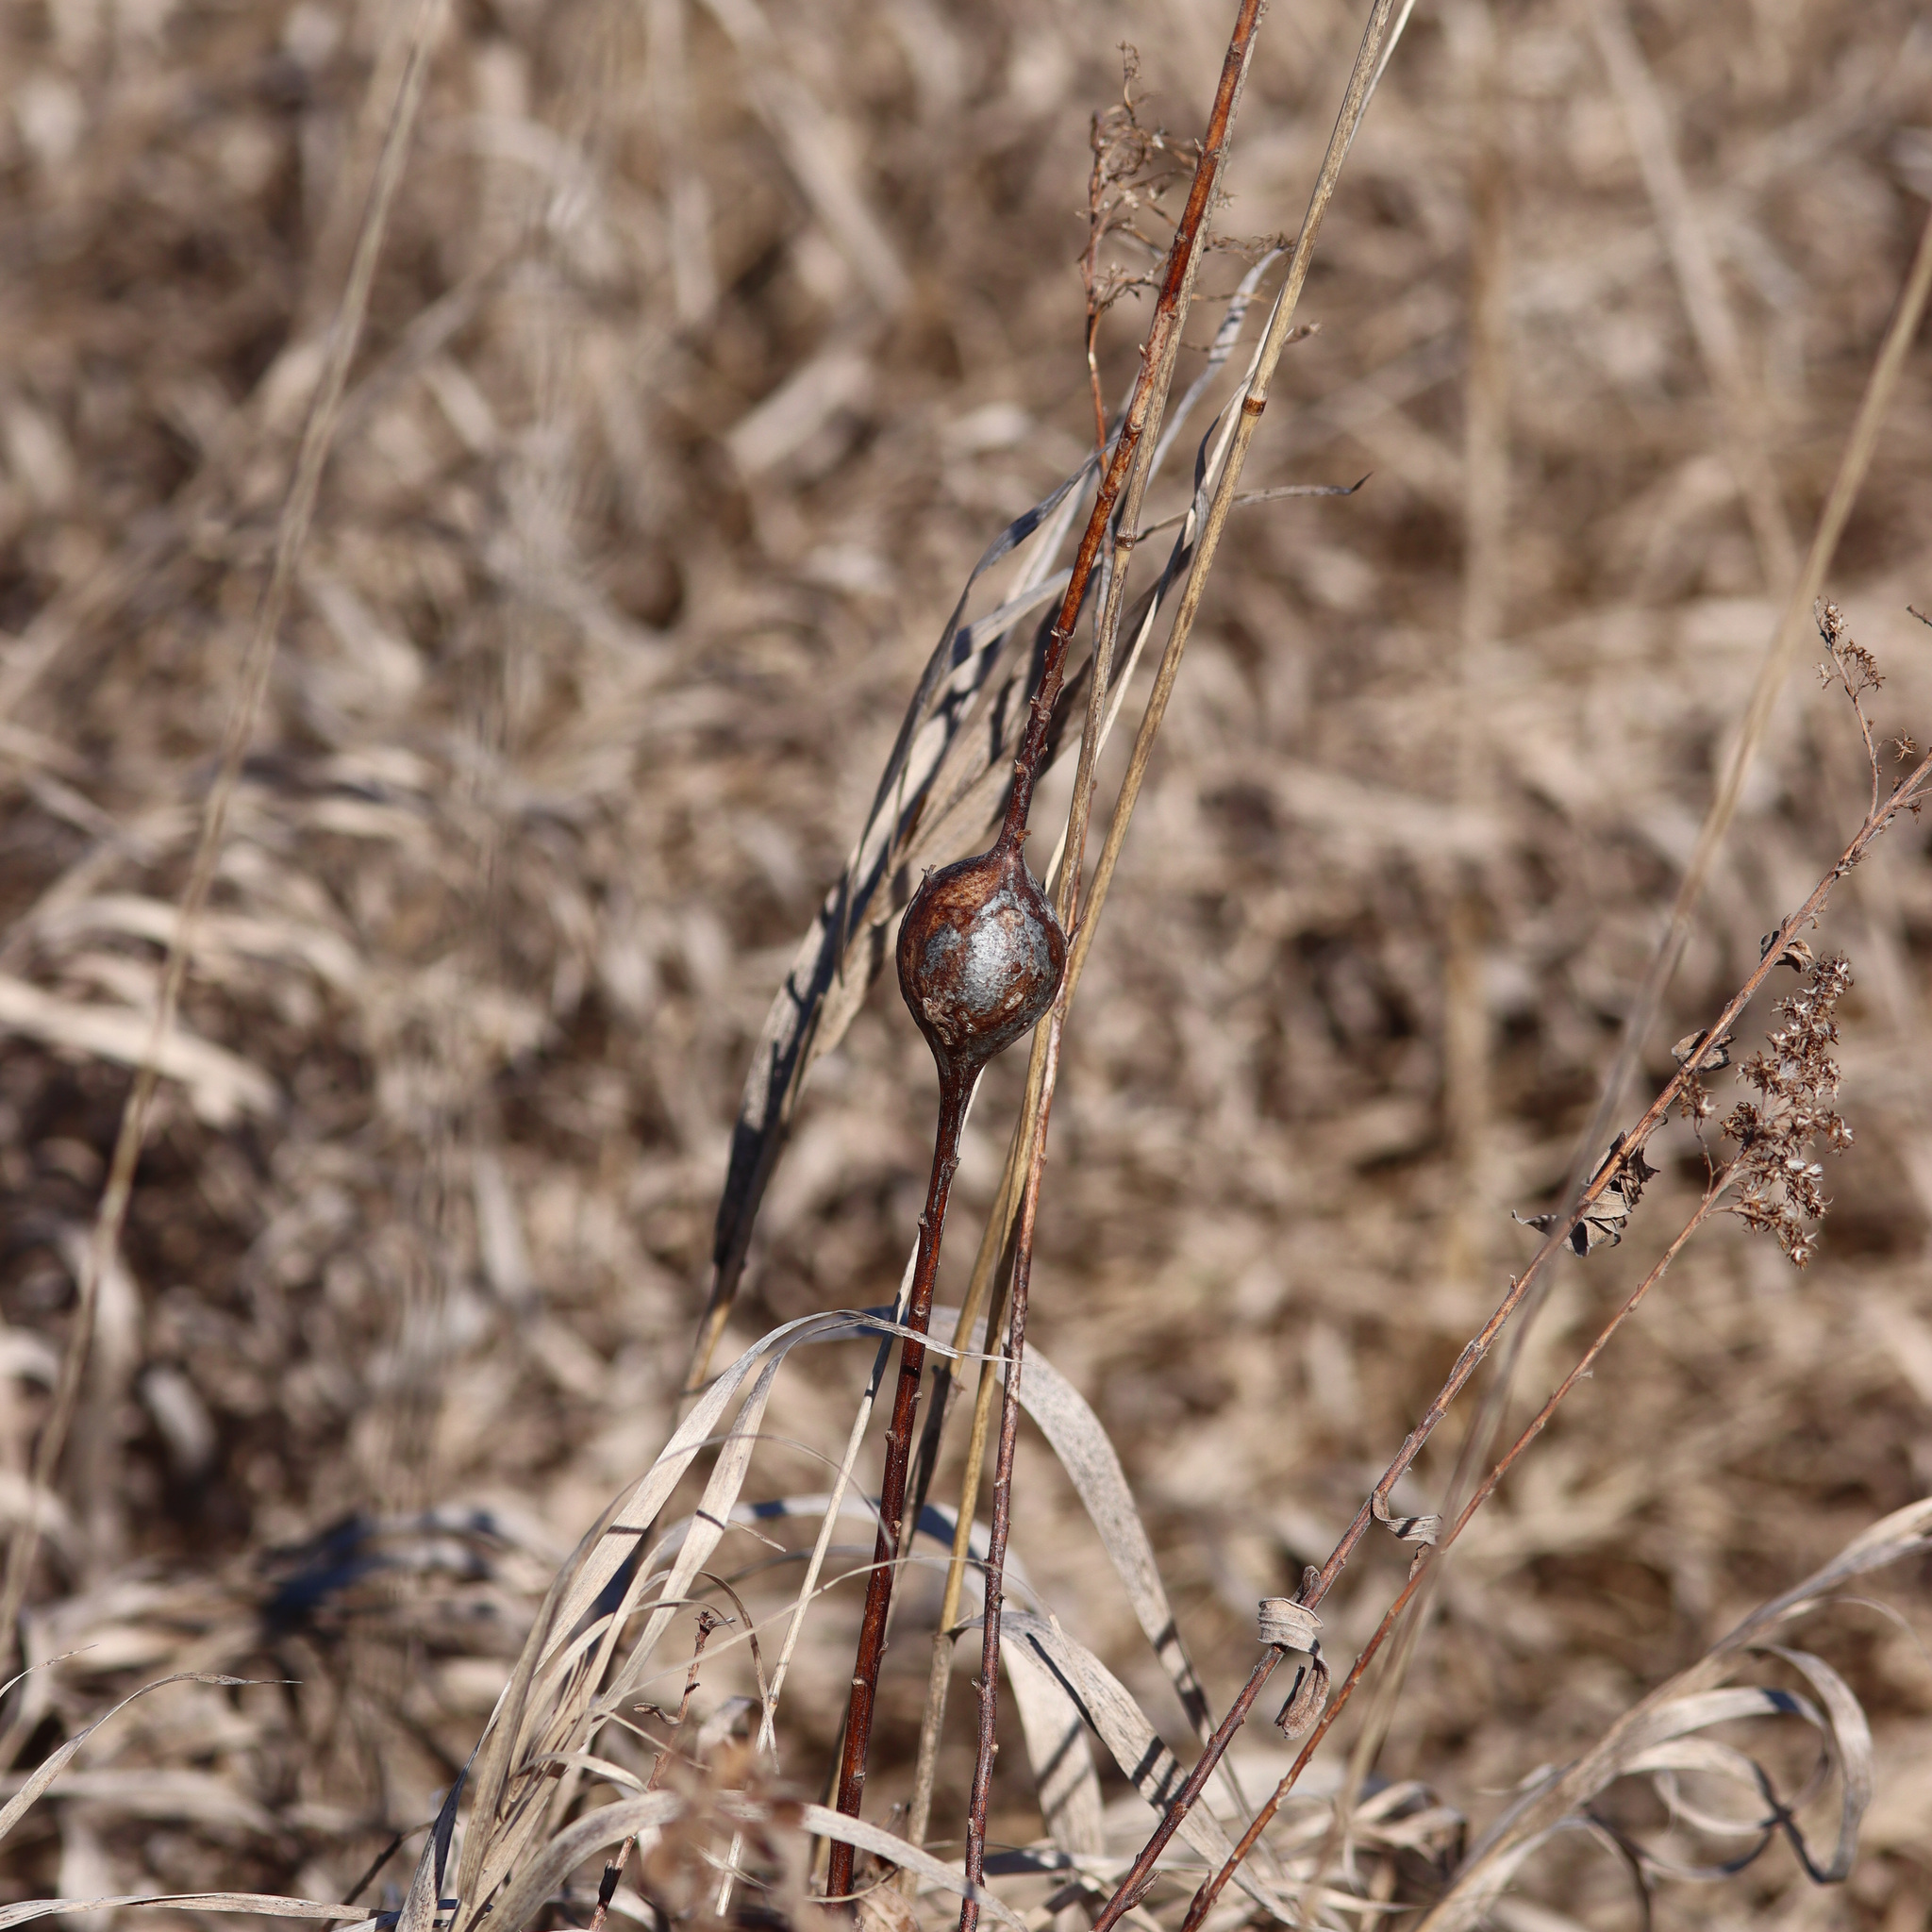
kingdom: Animalia
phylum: Arthropoda
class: Insecta
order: Diptera
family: Tephritidae
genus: Eurosta
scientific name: Eurosta solidaginis
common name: Goldenrod gall fly
